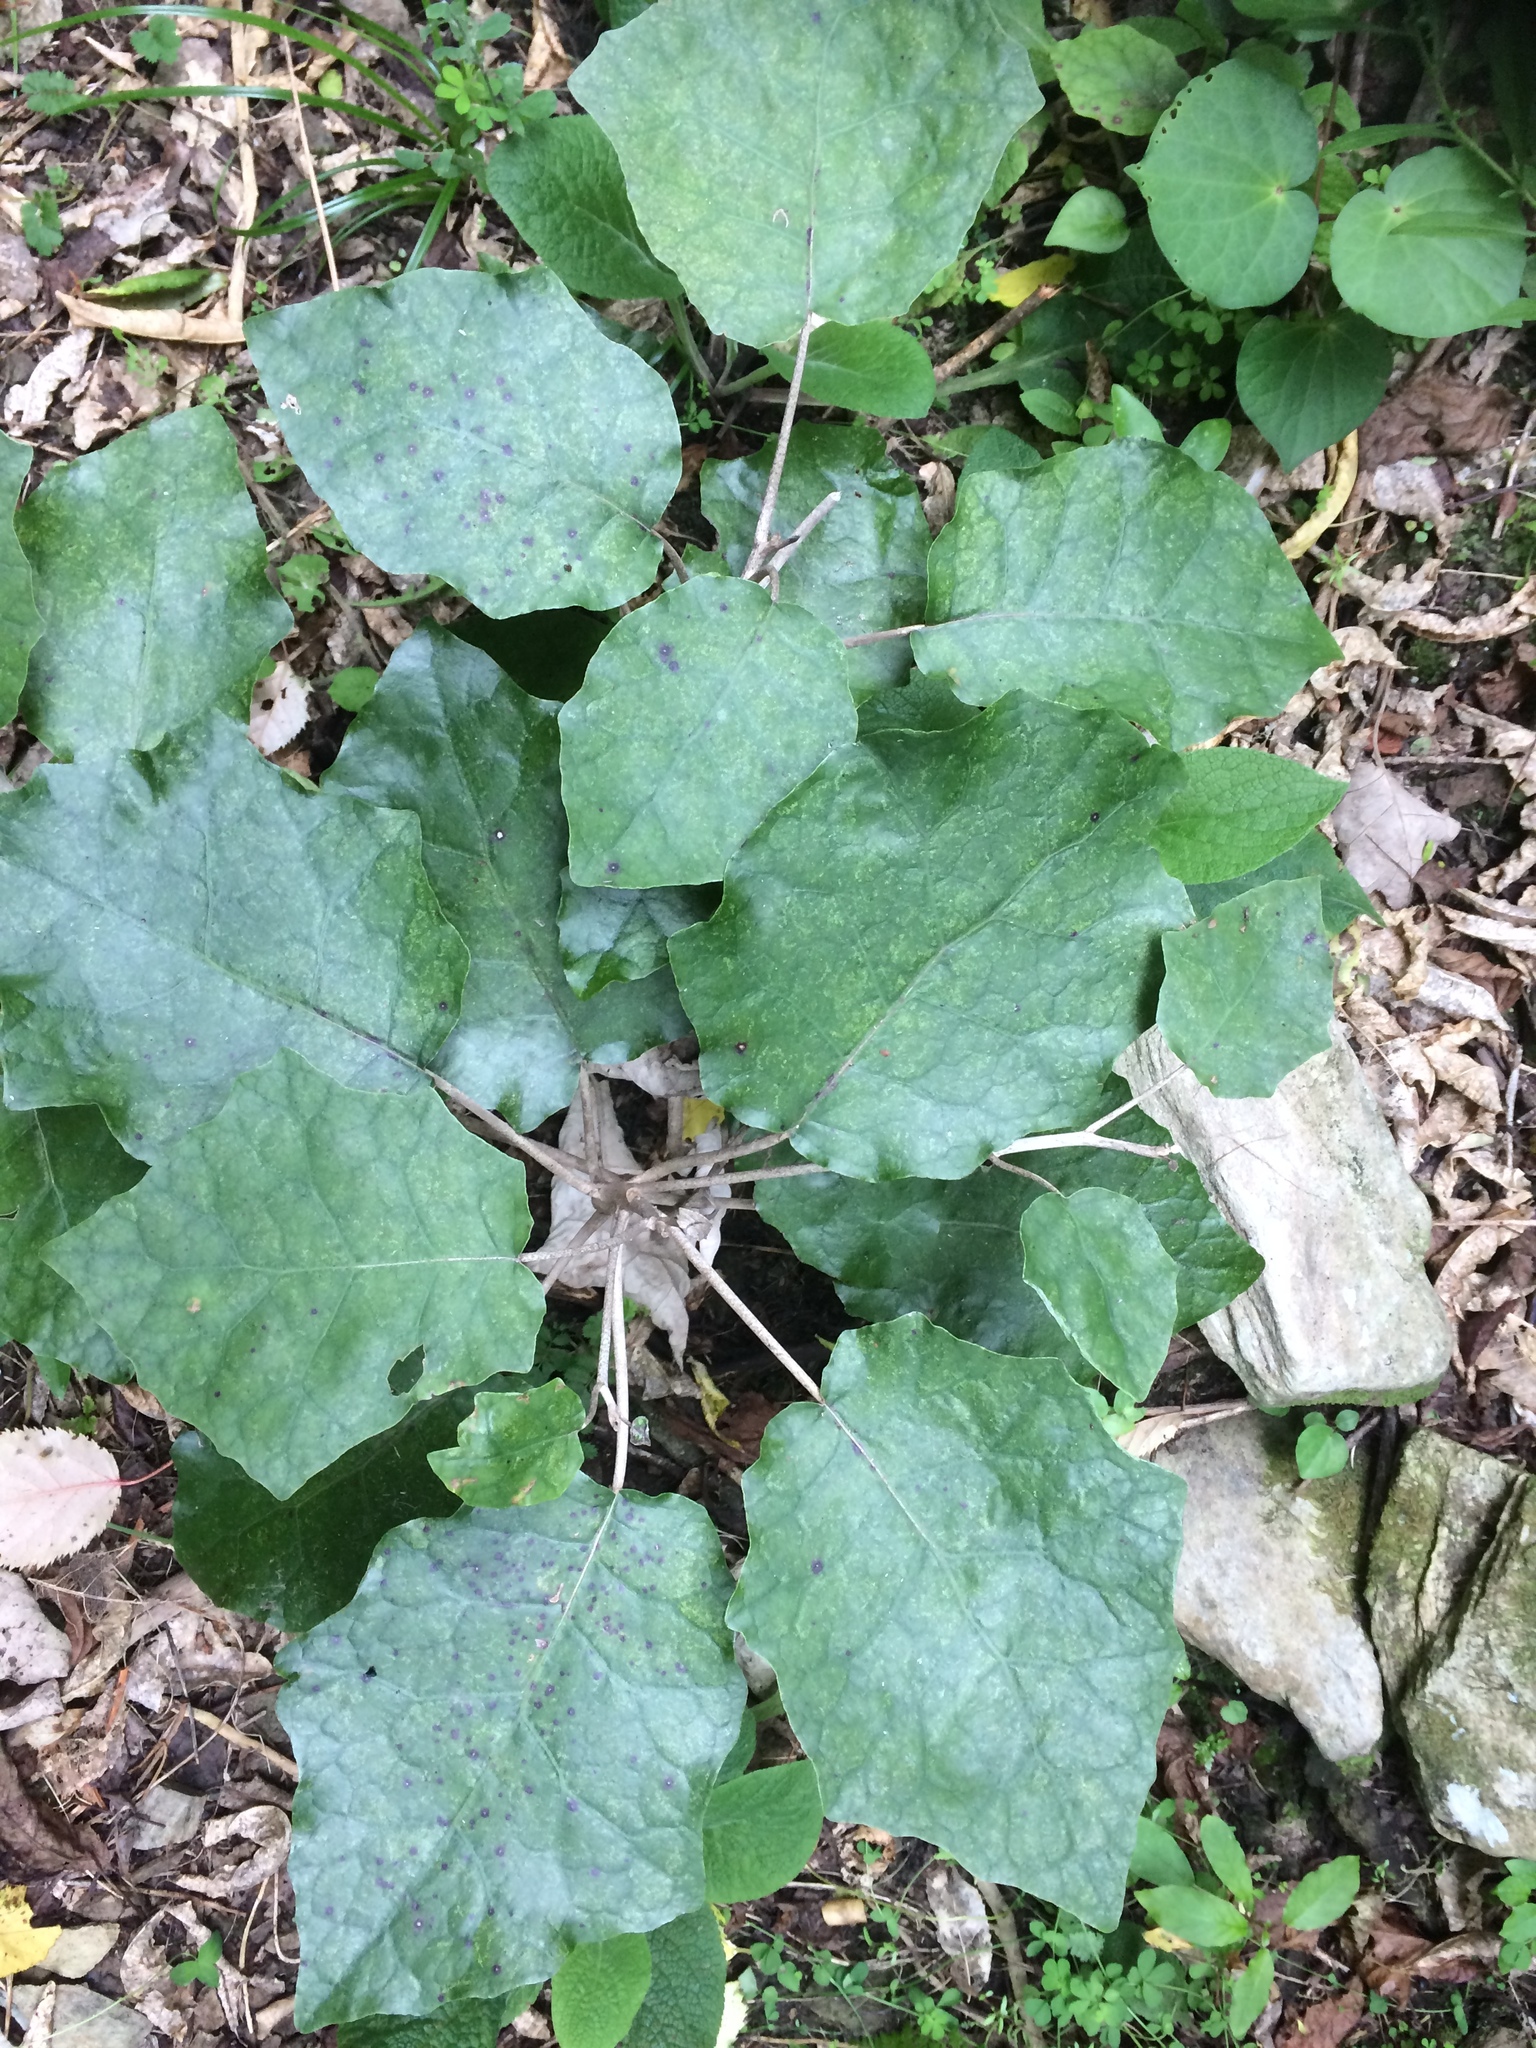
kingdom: Plantae
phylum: Tracheophyta
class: Magnoliopsida
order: Asterales
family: Asteraceae
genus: Brachyglottis
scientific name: Brachyglottis repanda
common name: Hedge ragwort
